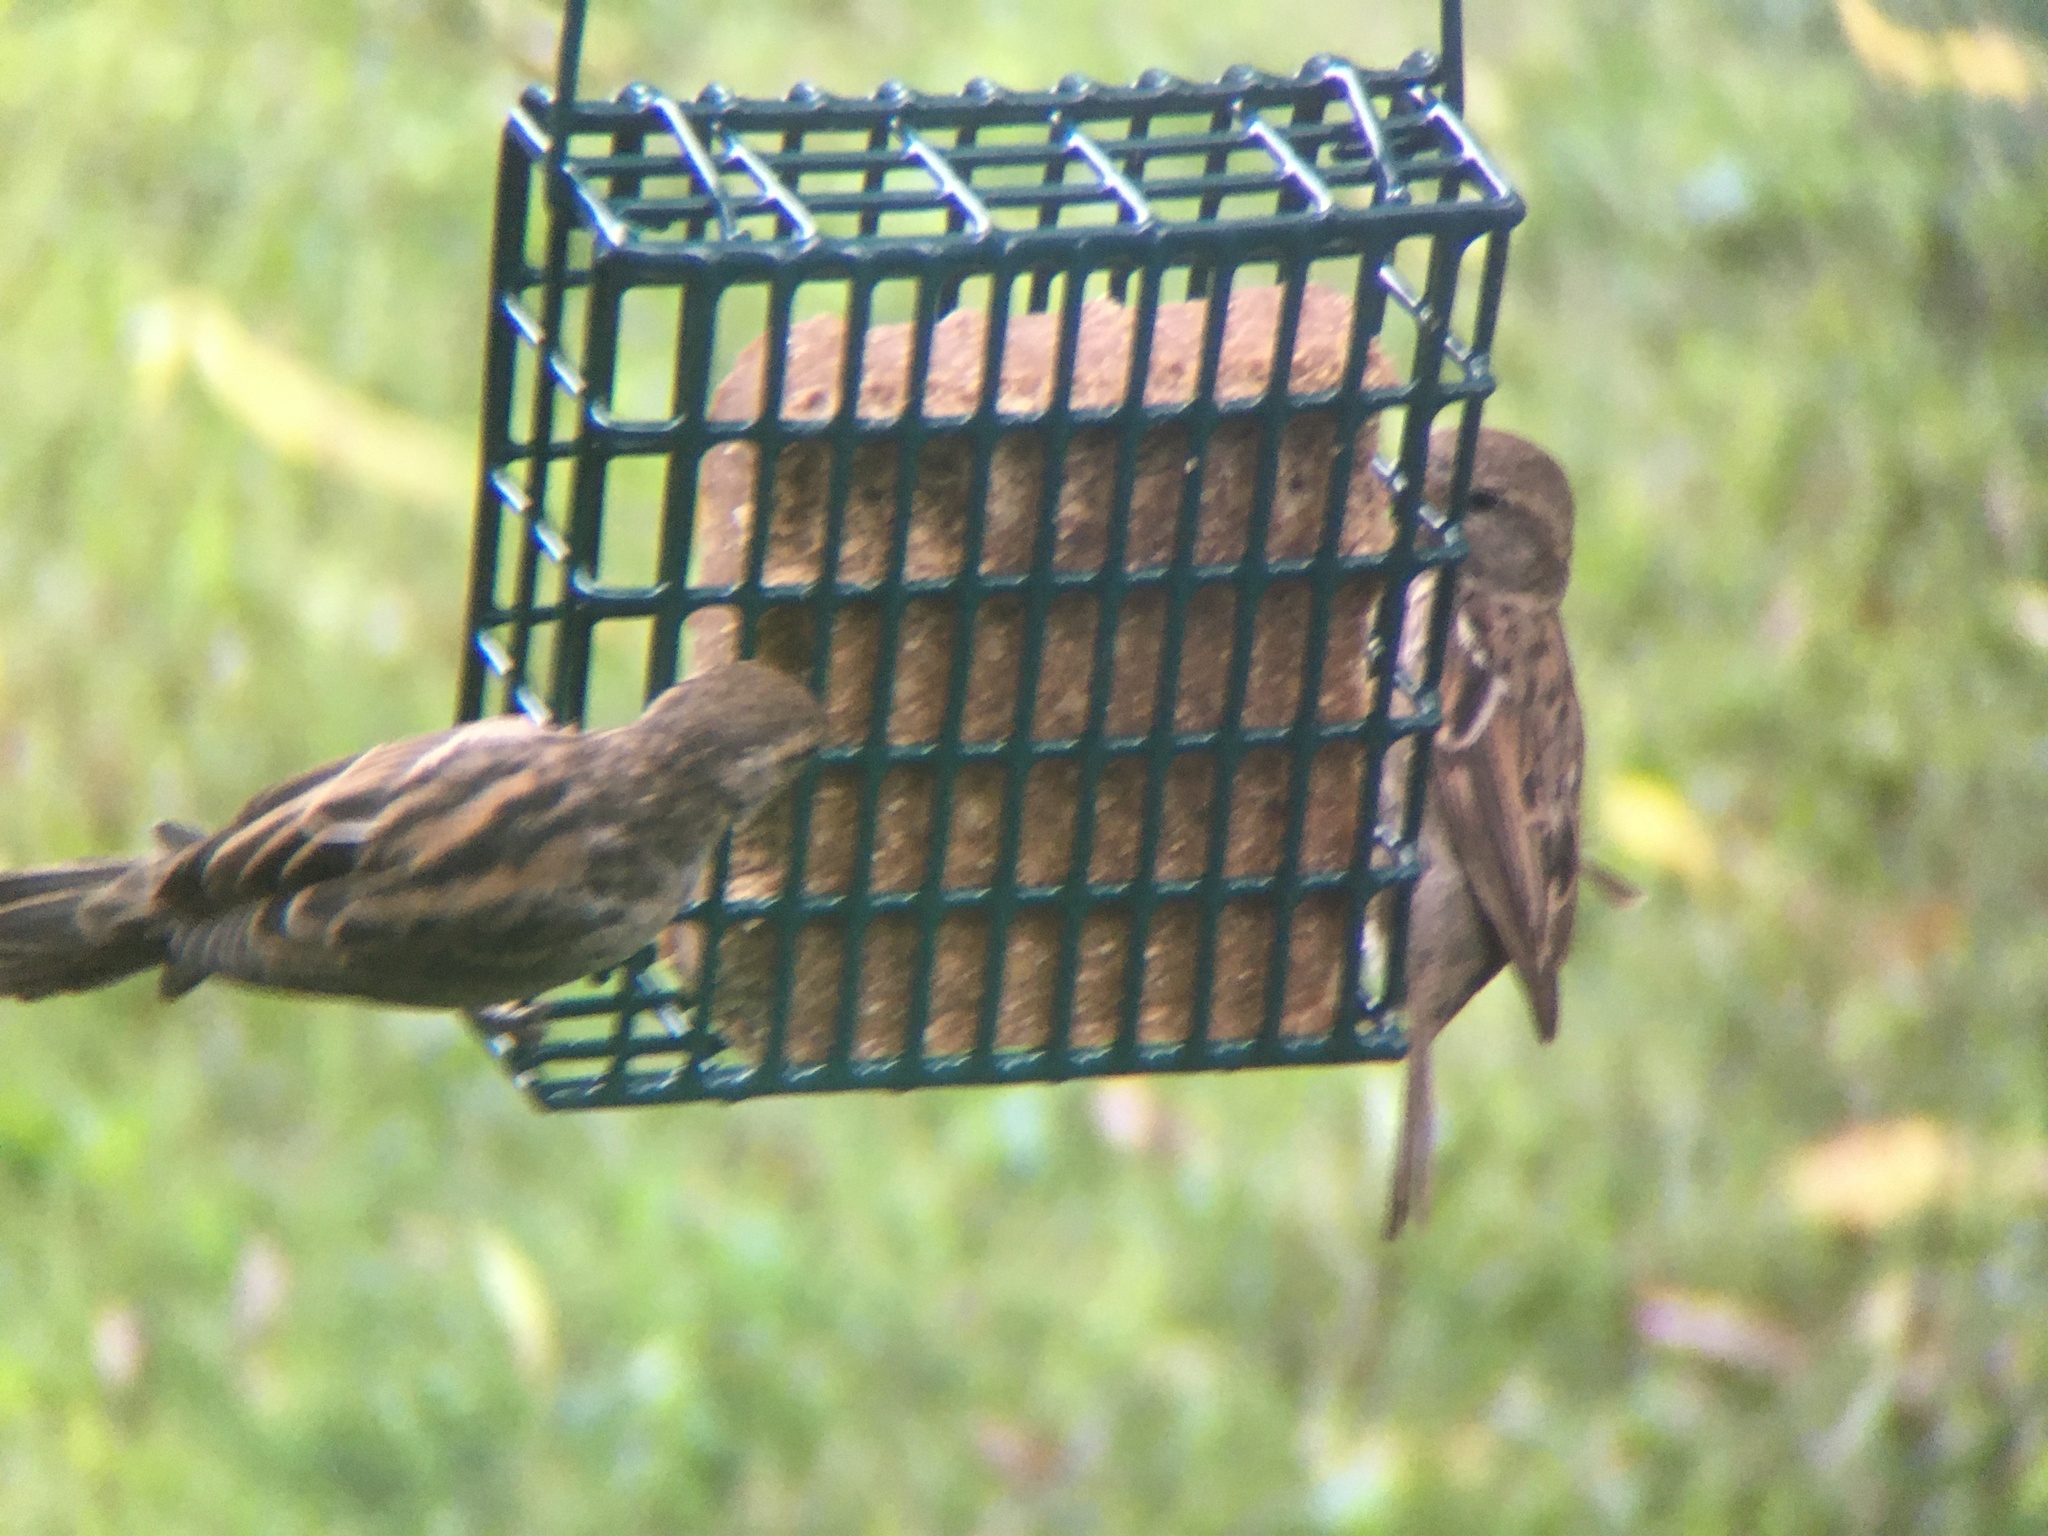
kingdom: Animalia
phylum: Chordata
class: Aves
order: Passeriformes
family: Passeridae
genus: Passer
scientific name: Passer domesticus
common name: House sparrow
